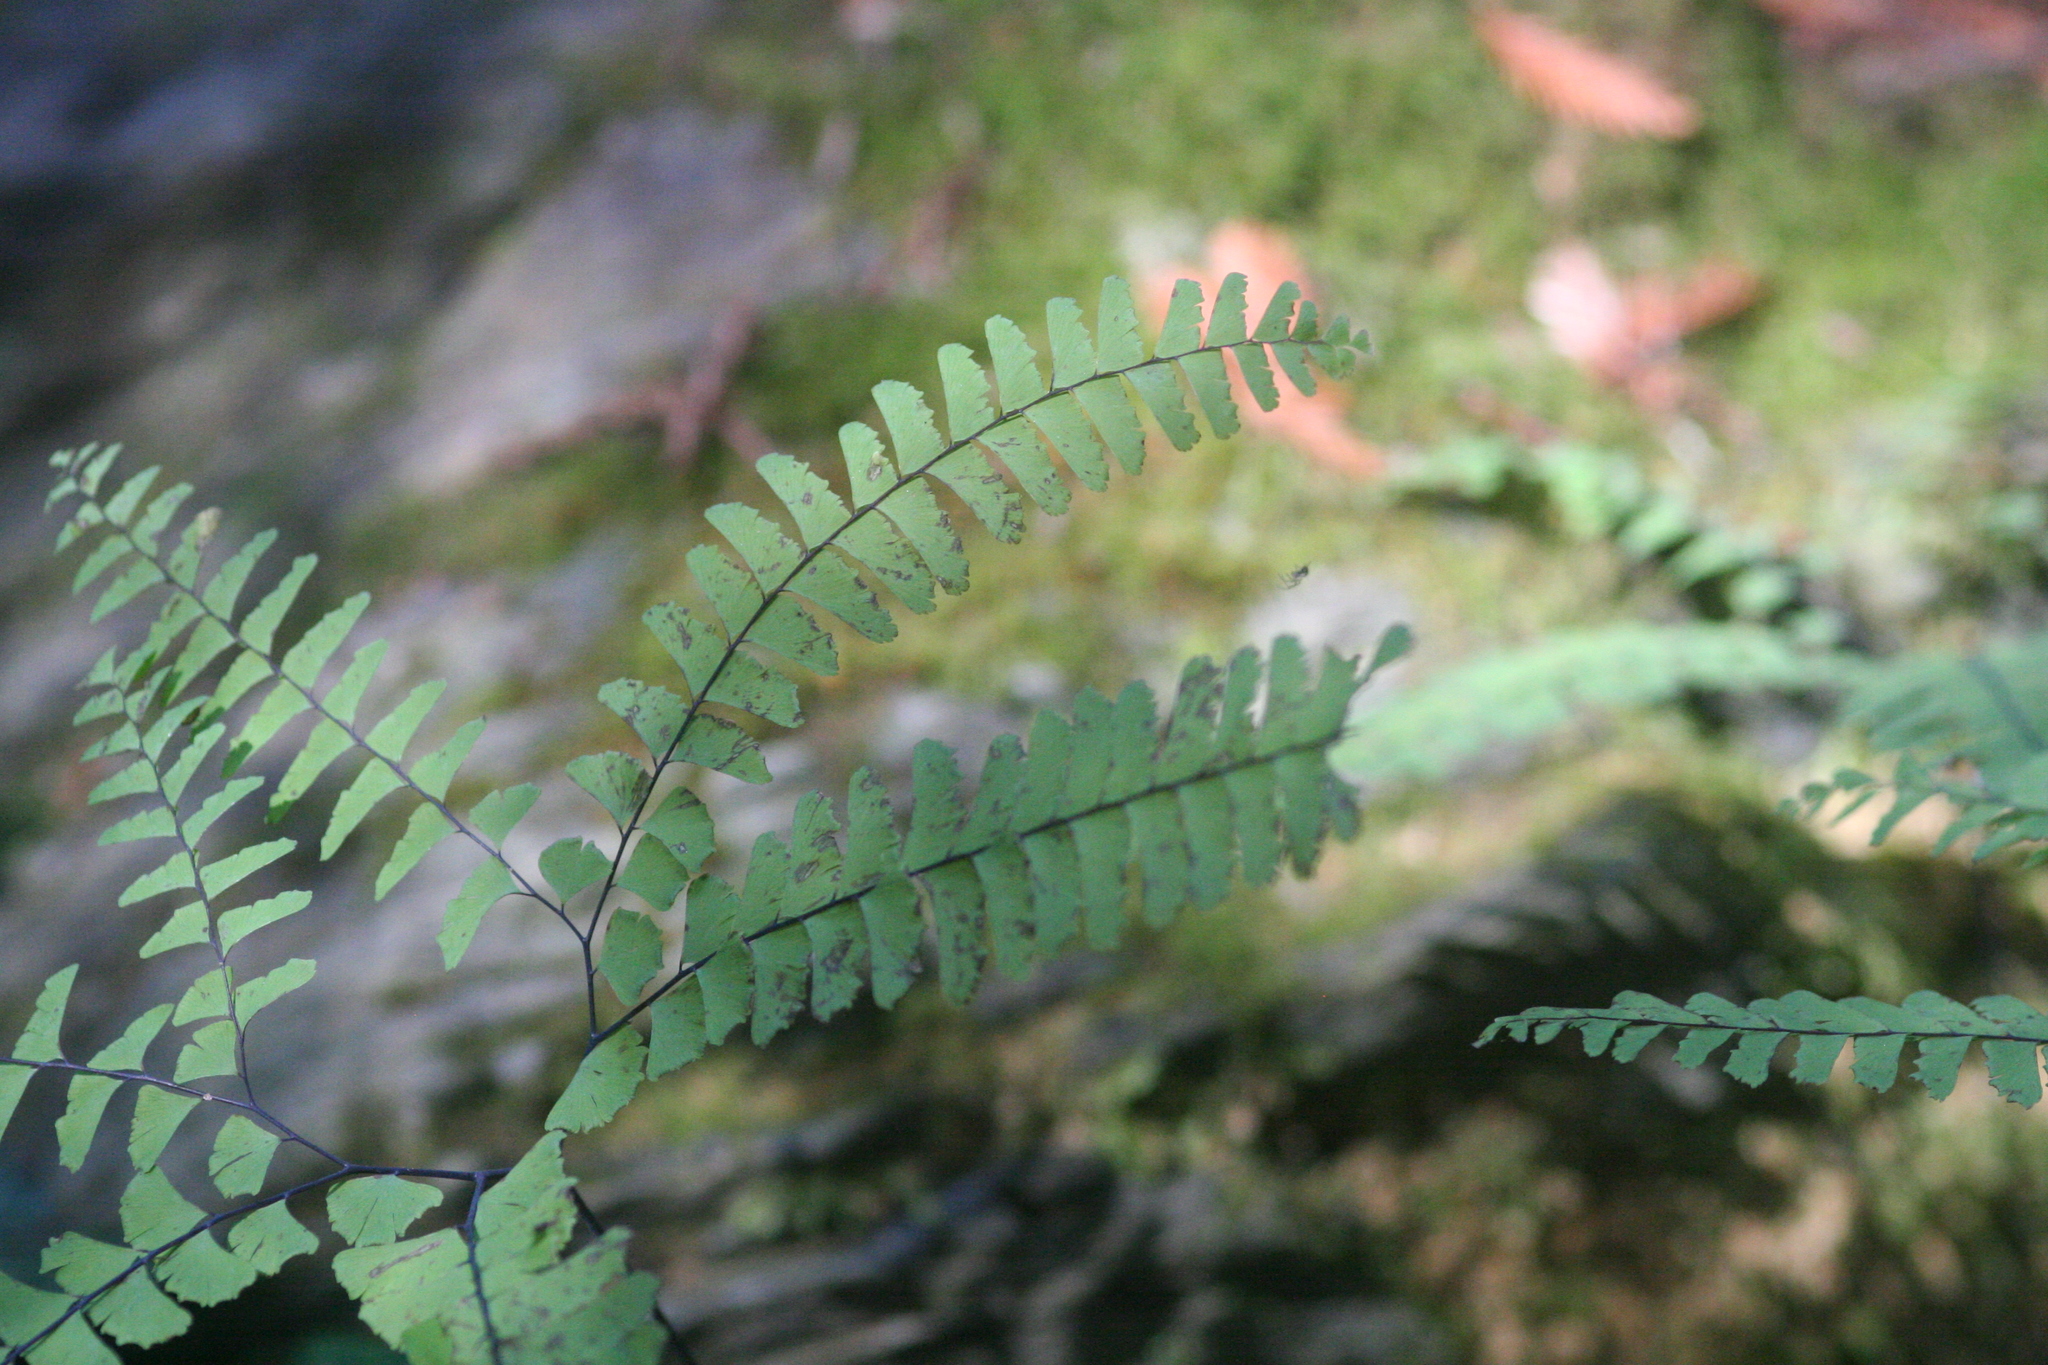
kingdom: Plantae
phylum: Tracheophyta
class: Polypodiopsida
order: Polypodiales
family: Pteridaceae
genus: Adiantum
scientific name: Adiantum aleuticum
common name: Aleutian maidenhair fern
